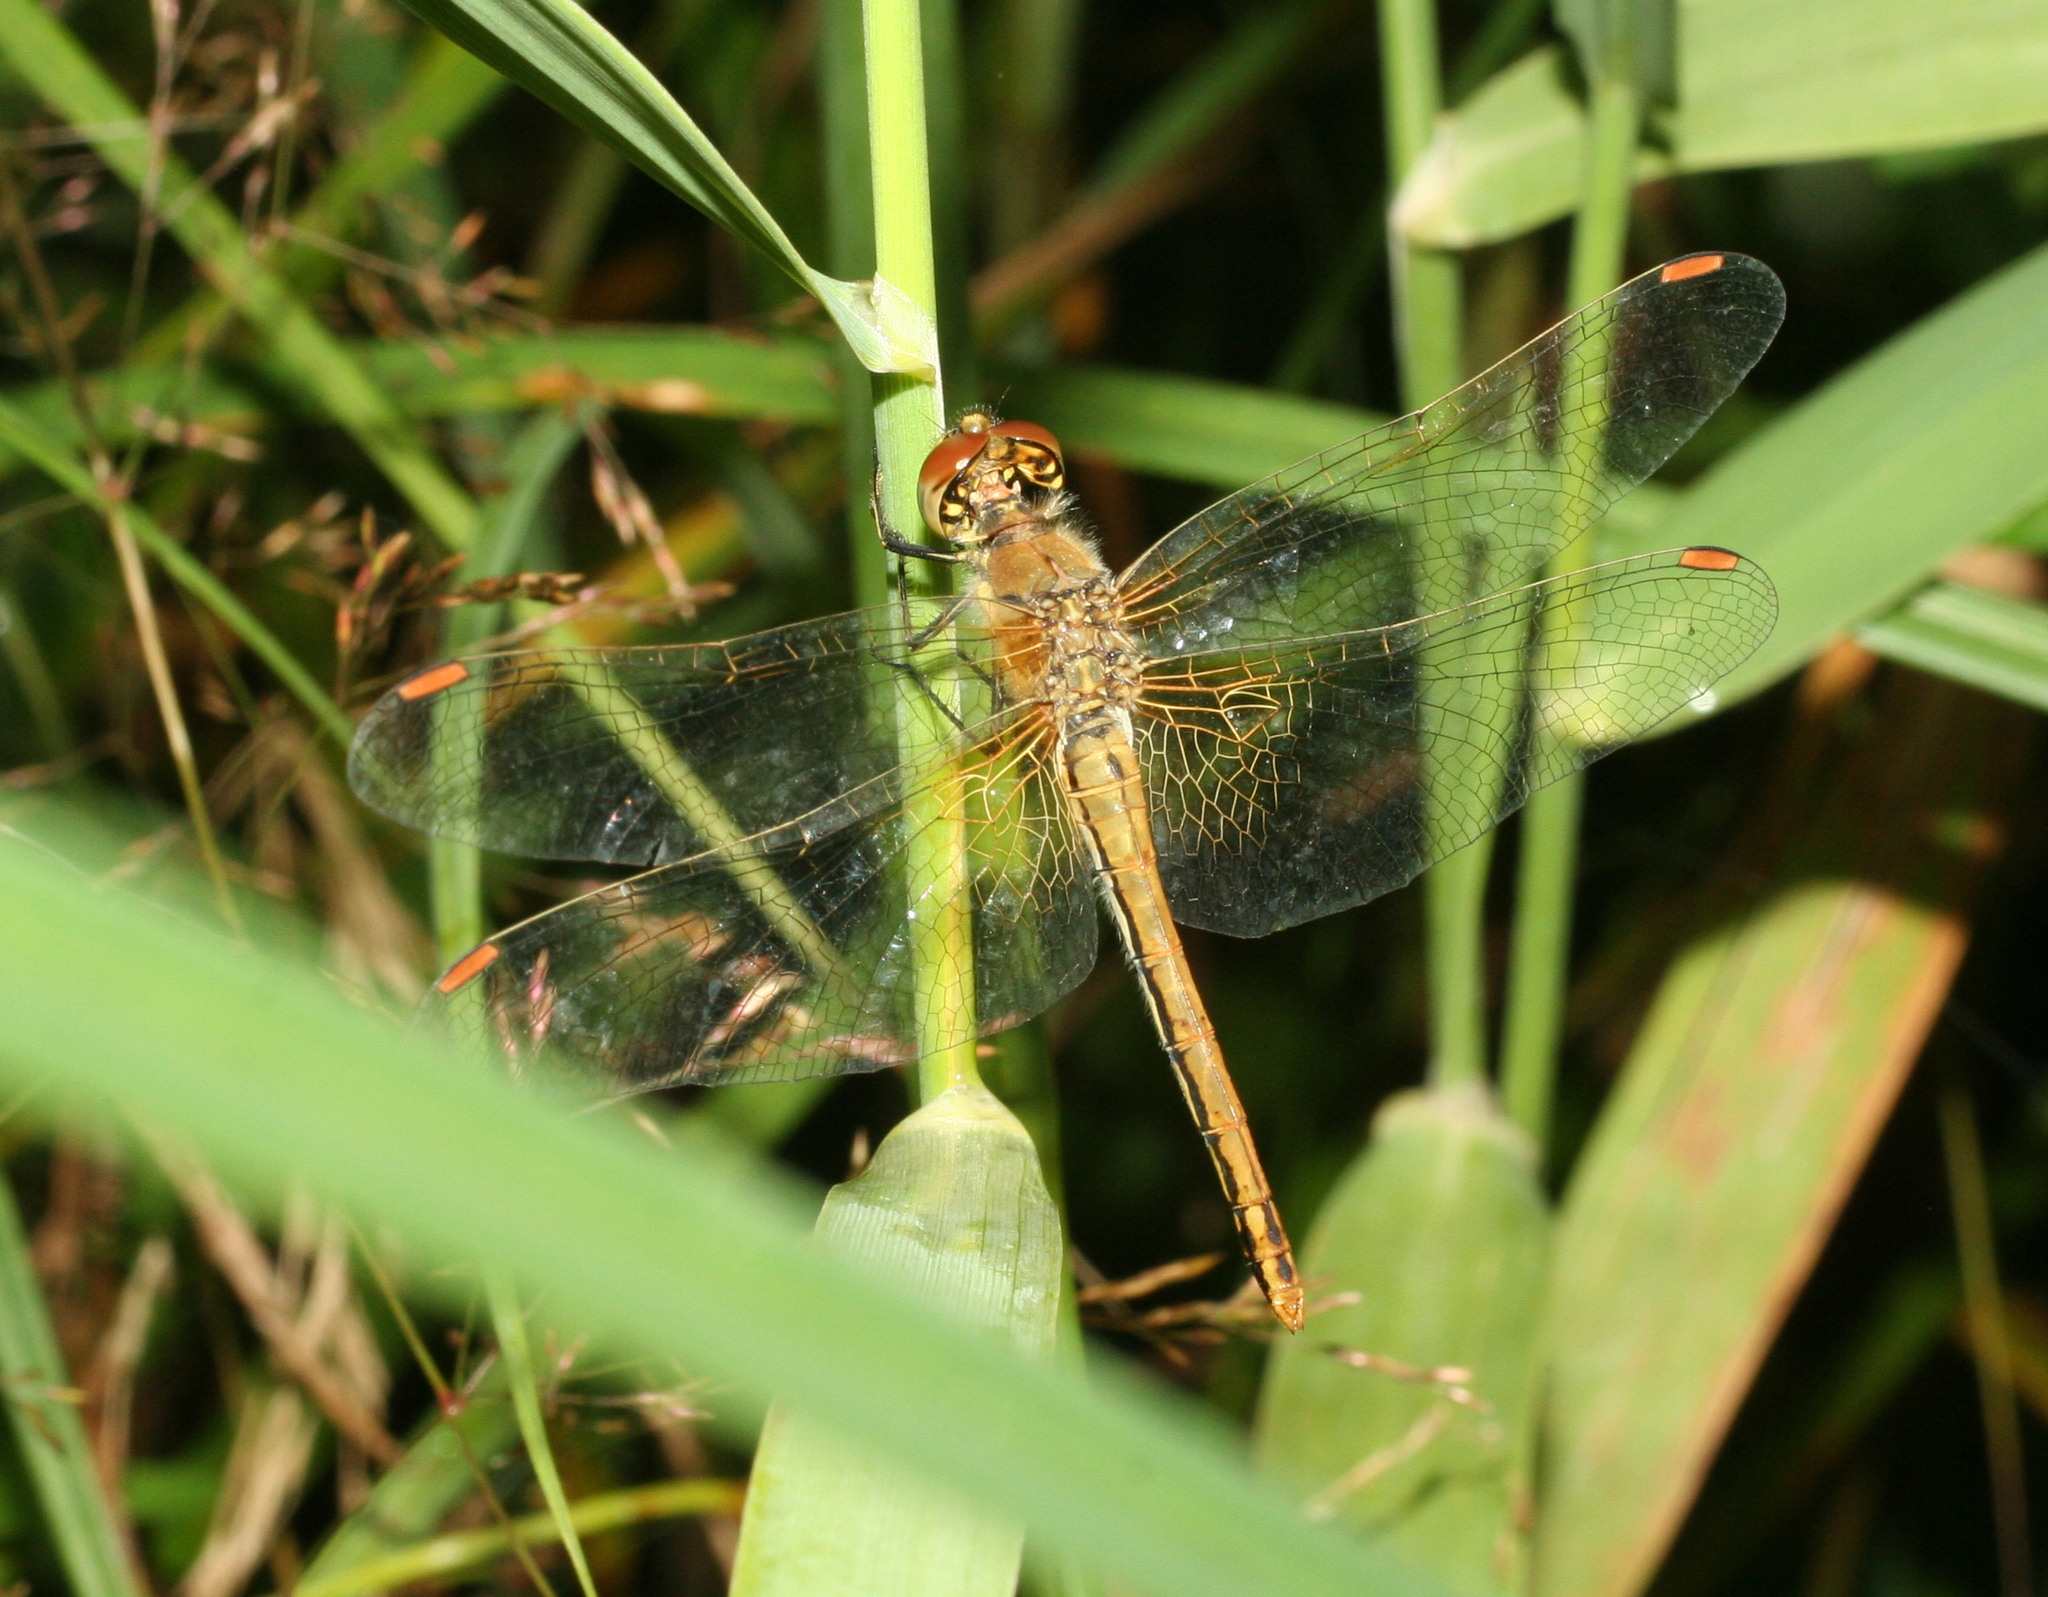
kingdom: Animalia
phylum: Arthropoda
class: Insecta
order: Odonata
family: Libellulidae
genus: Sympetrum
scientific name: Sympetrum flaveolum
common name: Yellow-winged darter
